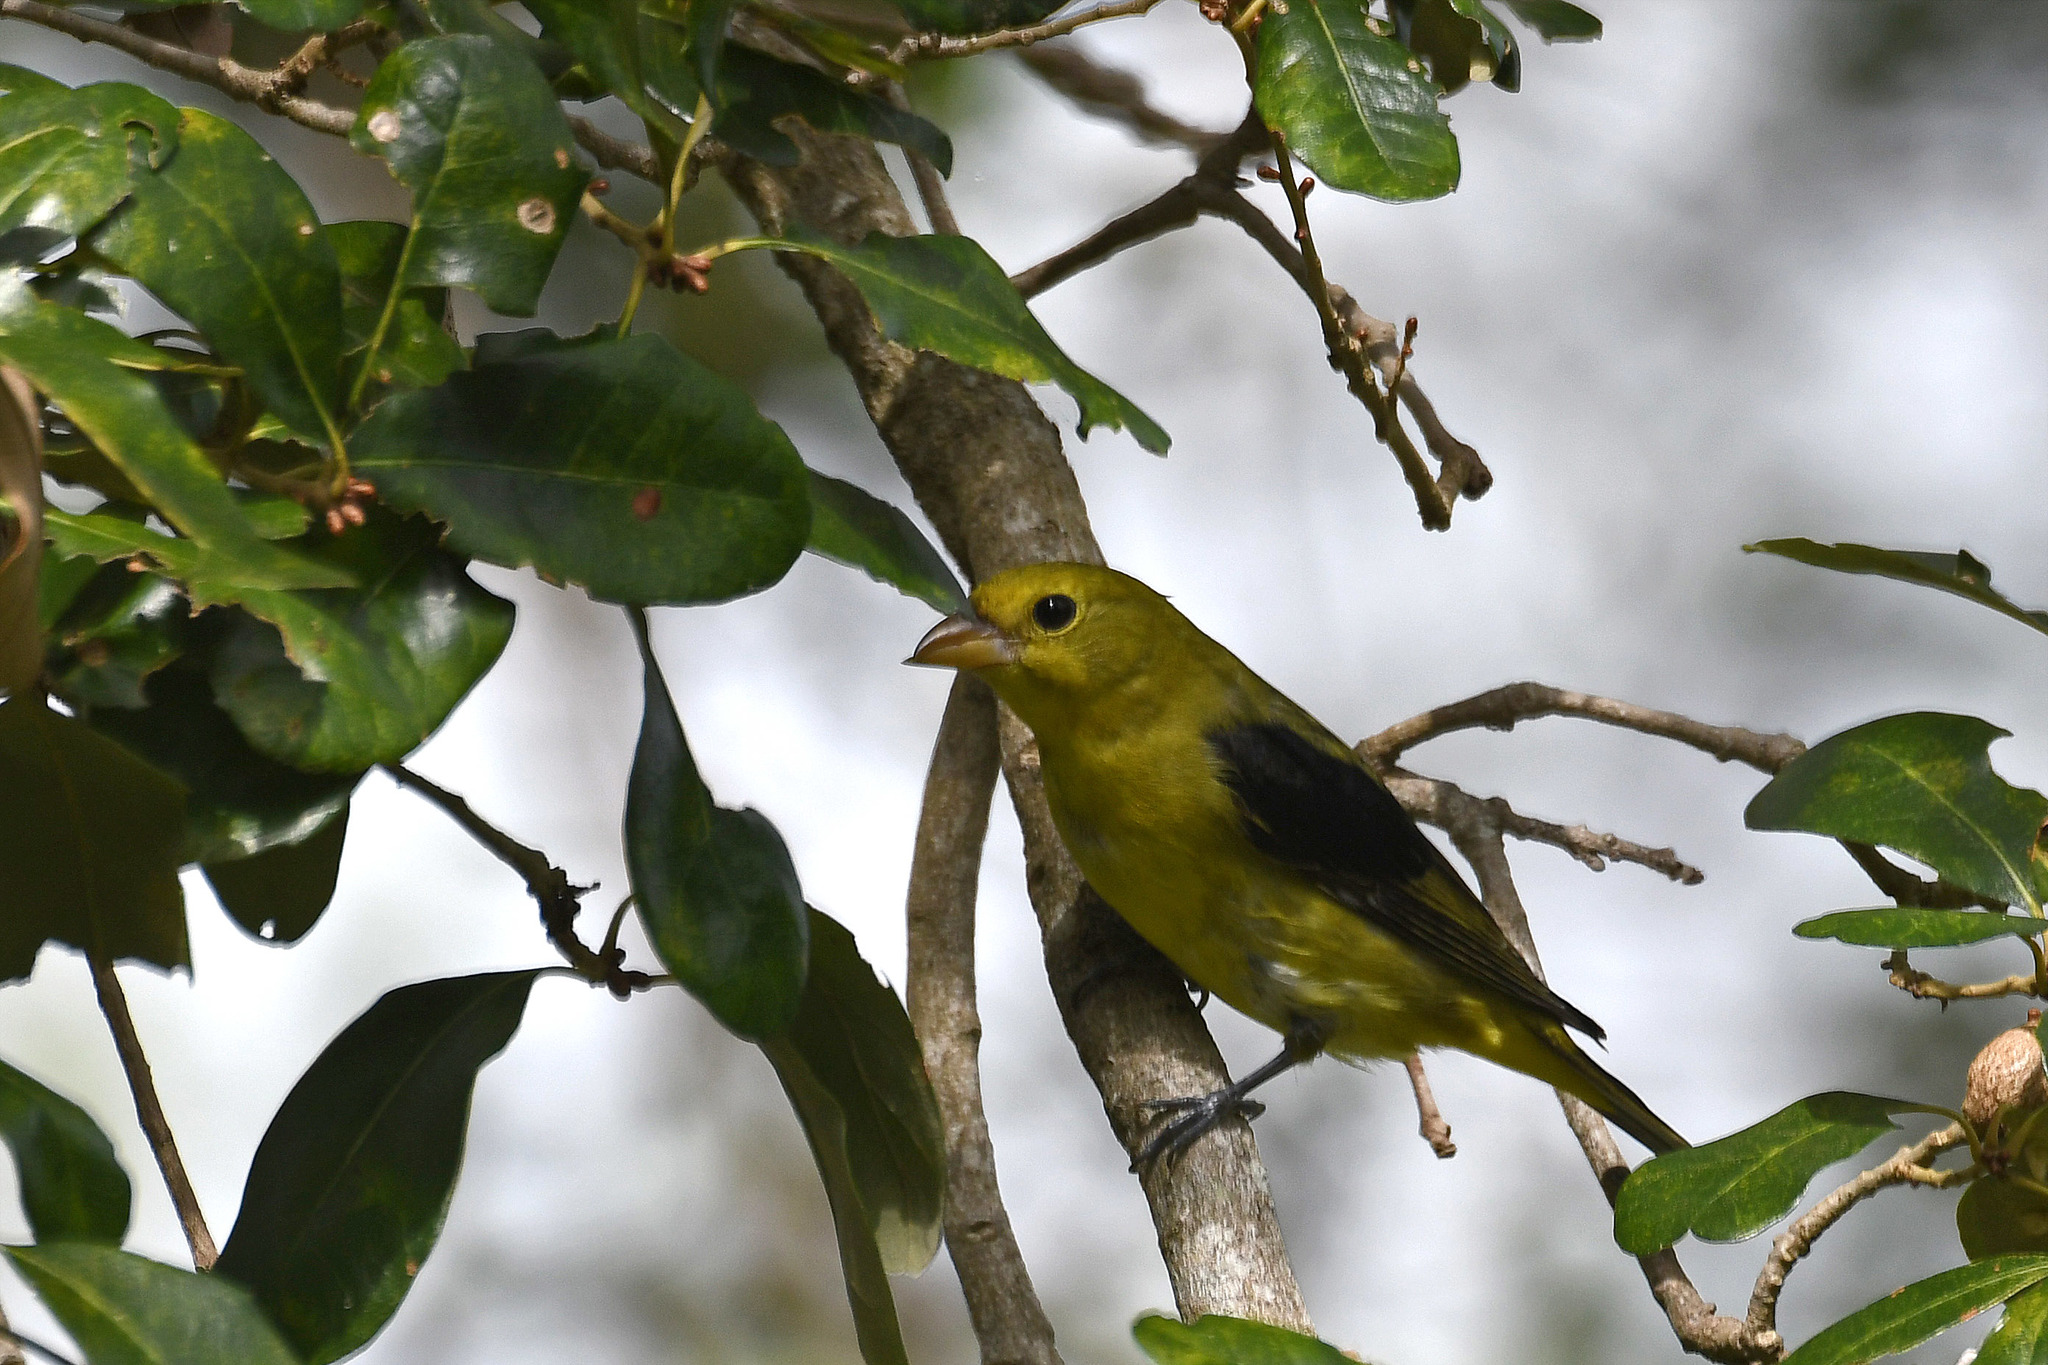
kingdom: Animalia
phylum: Chordata
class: Aves
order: Passeriformes
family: Cardinalidae
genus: Piranga
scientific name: Piranga olivacea
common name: Scarlet tanager
